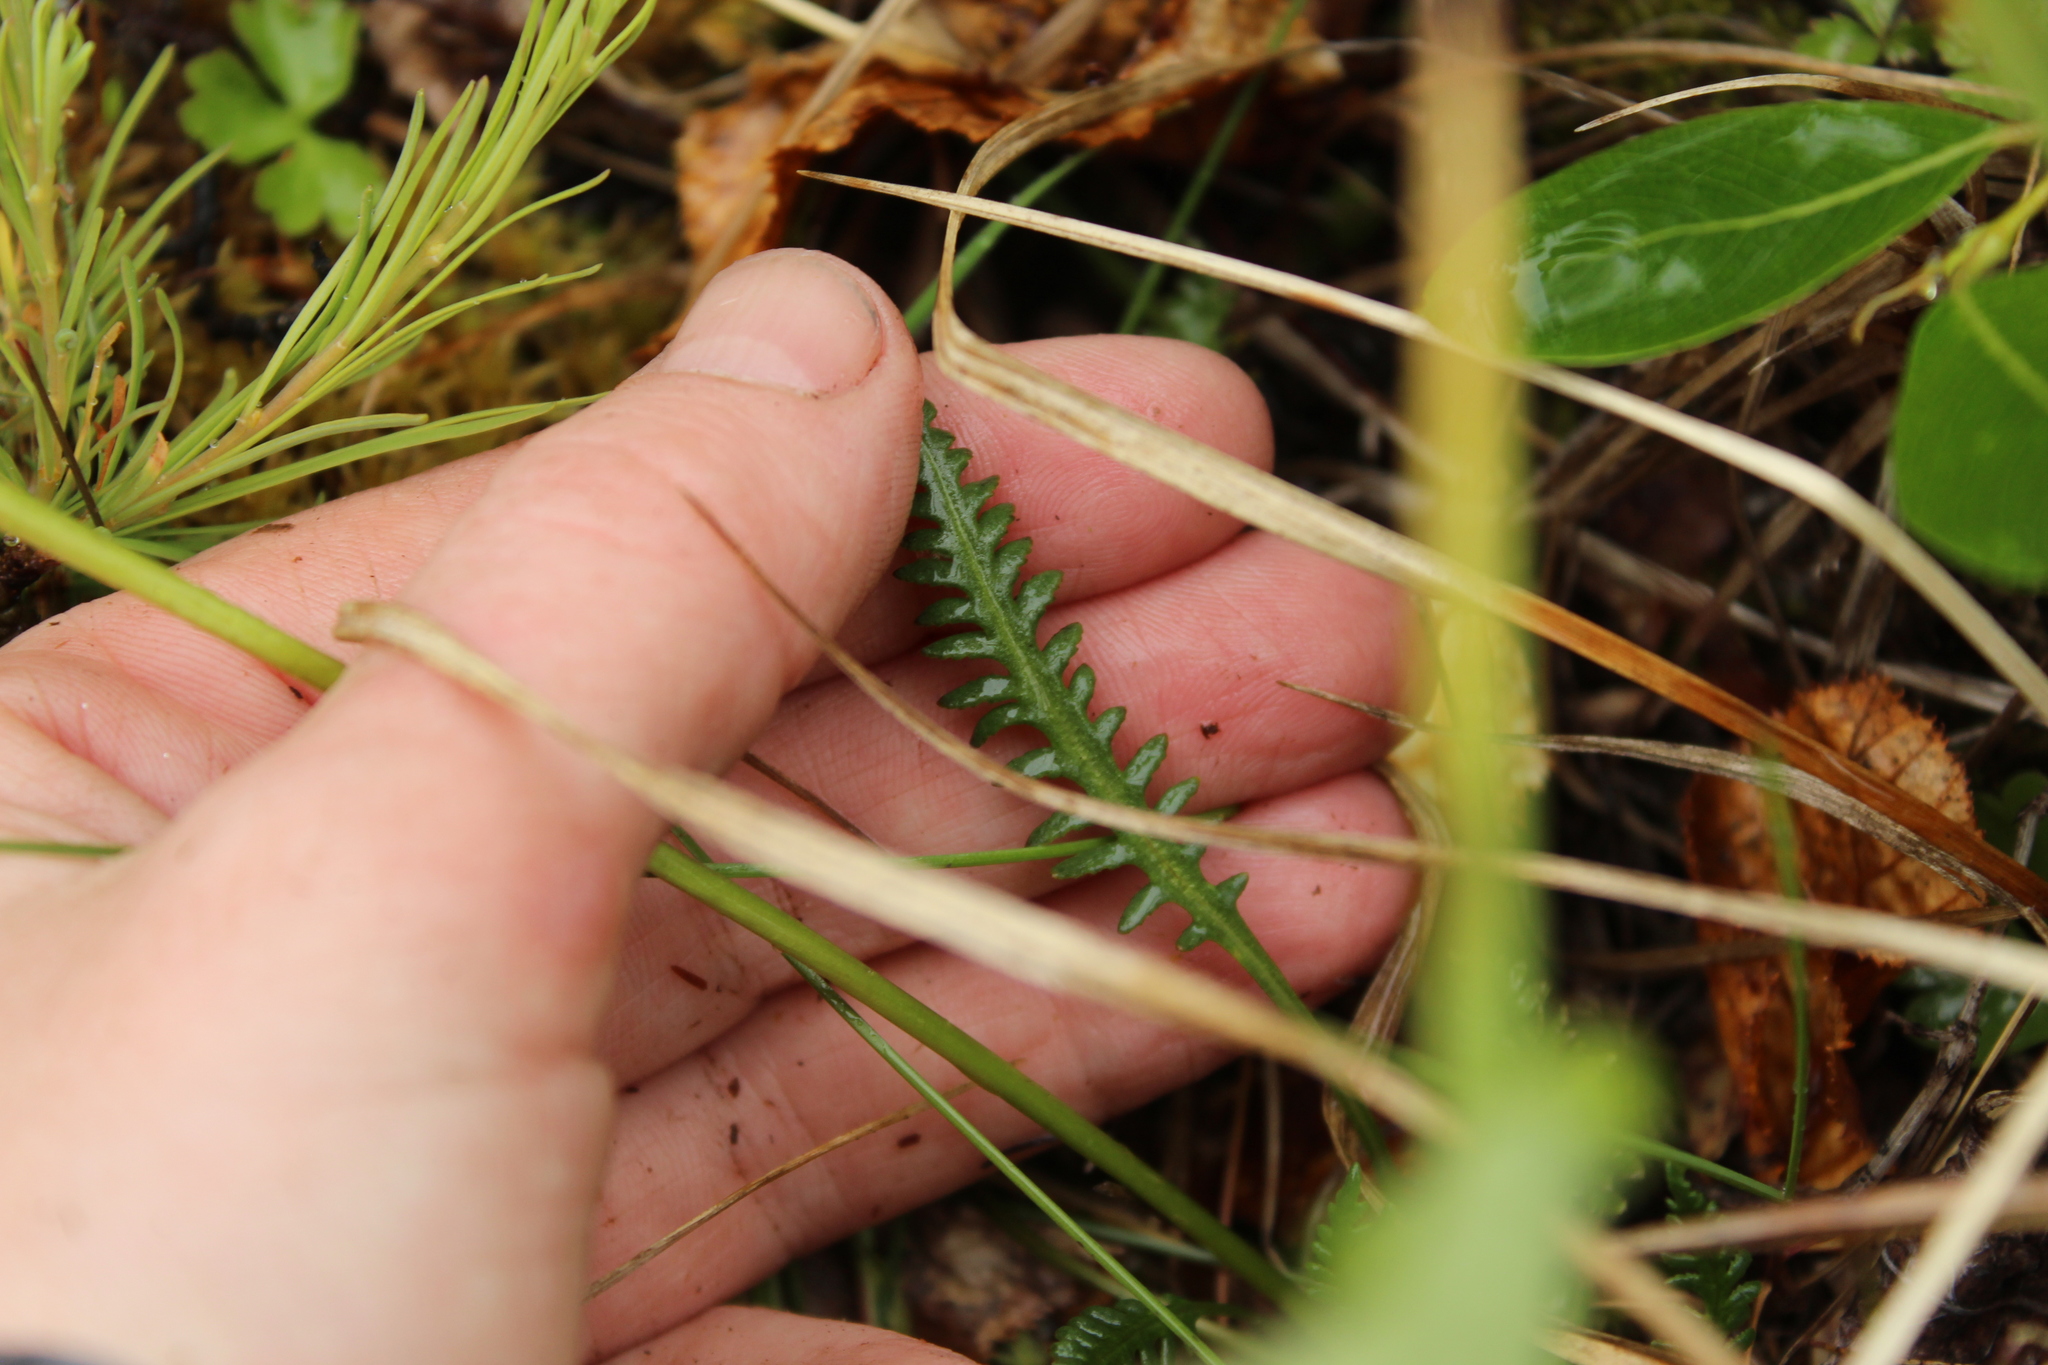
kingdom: Plantae
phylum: Tracheophyta
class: Magnoliopsida
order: Lamiales
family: Orobanchaceae
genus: Pedicularis
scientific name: Pedicularis novaiae-zemliae
